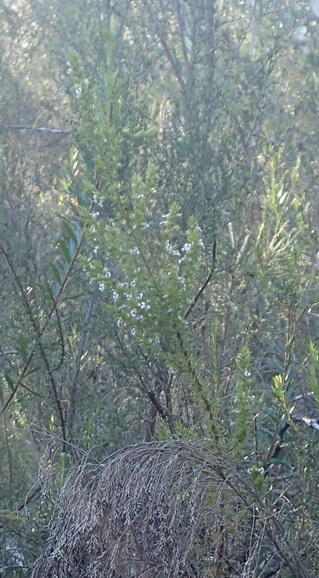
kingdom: Plantae
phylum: Tracheophyta
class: Magnoliopsida
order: Fabales
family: Polygalaceae
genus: Muraltia
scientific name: Muraltia ericifolia
